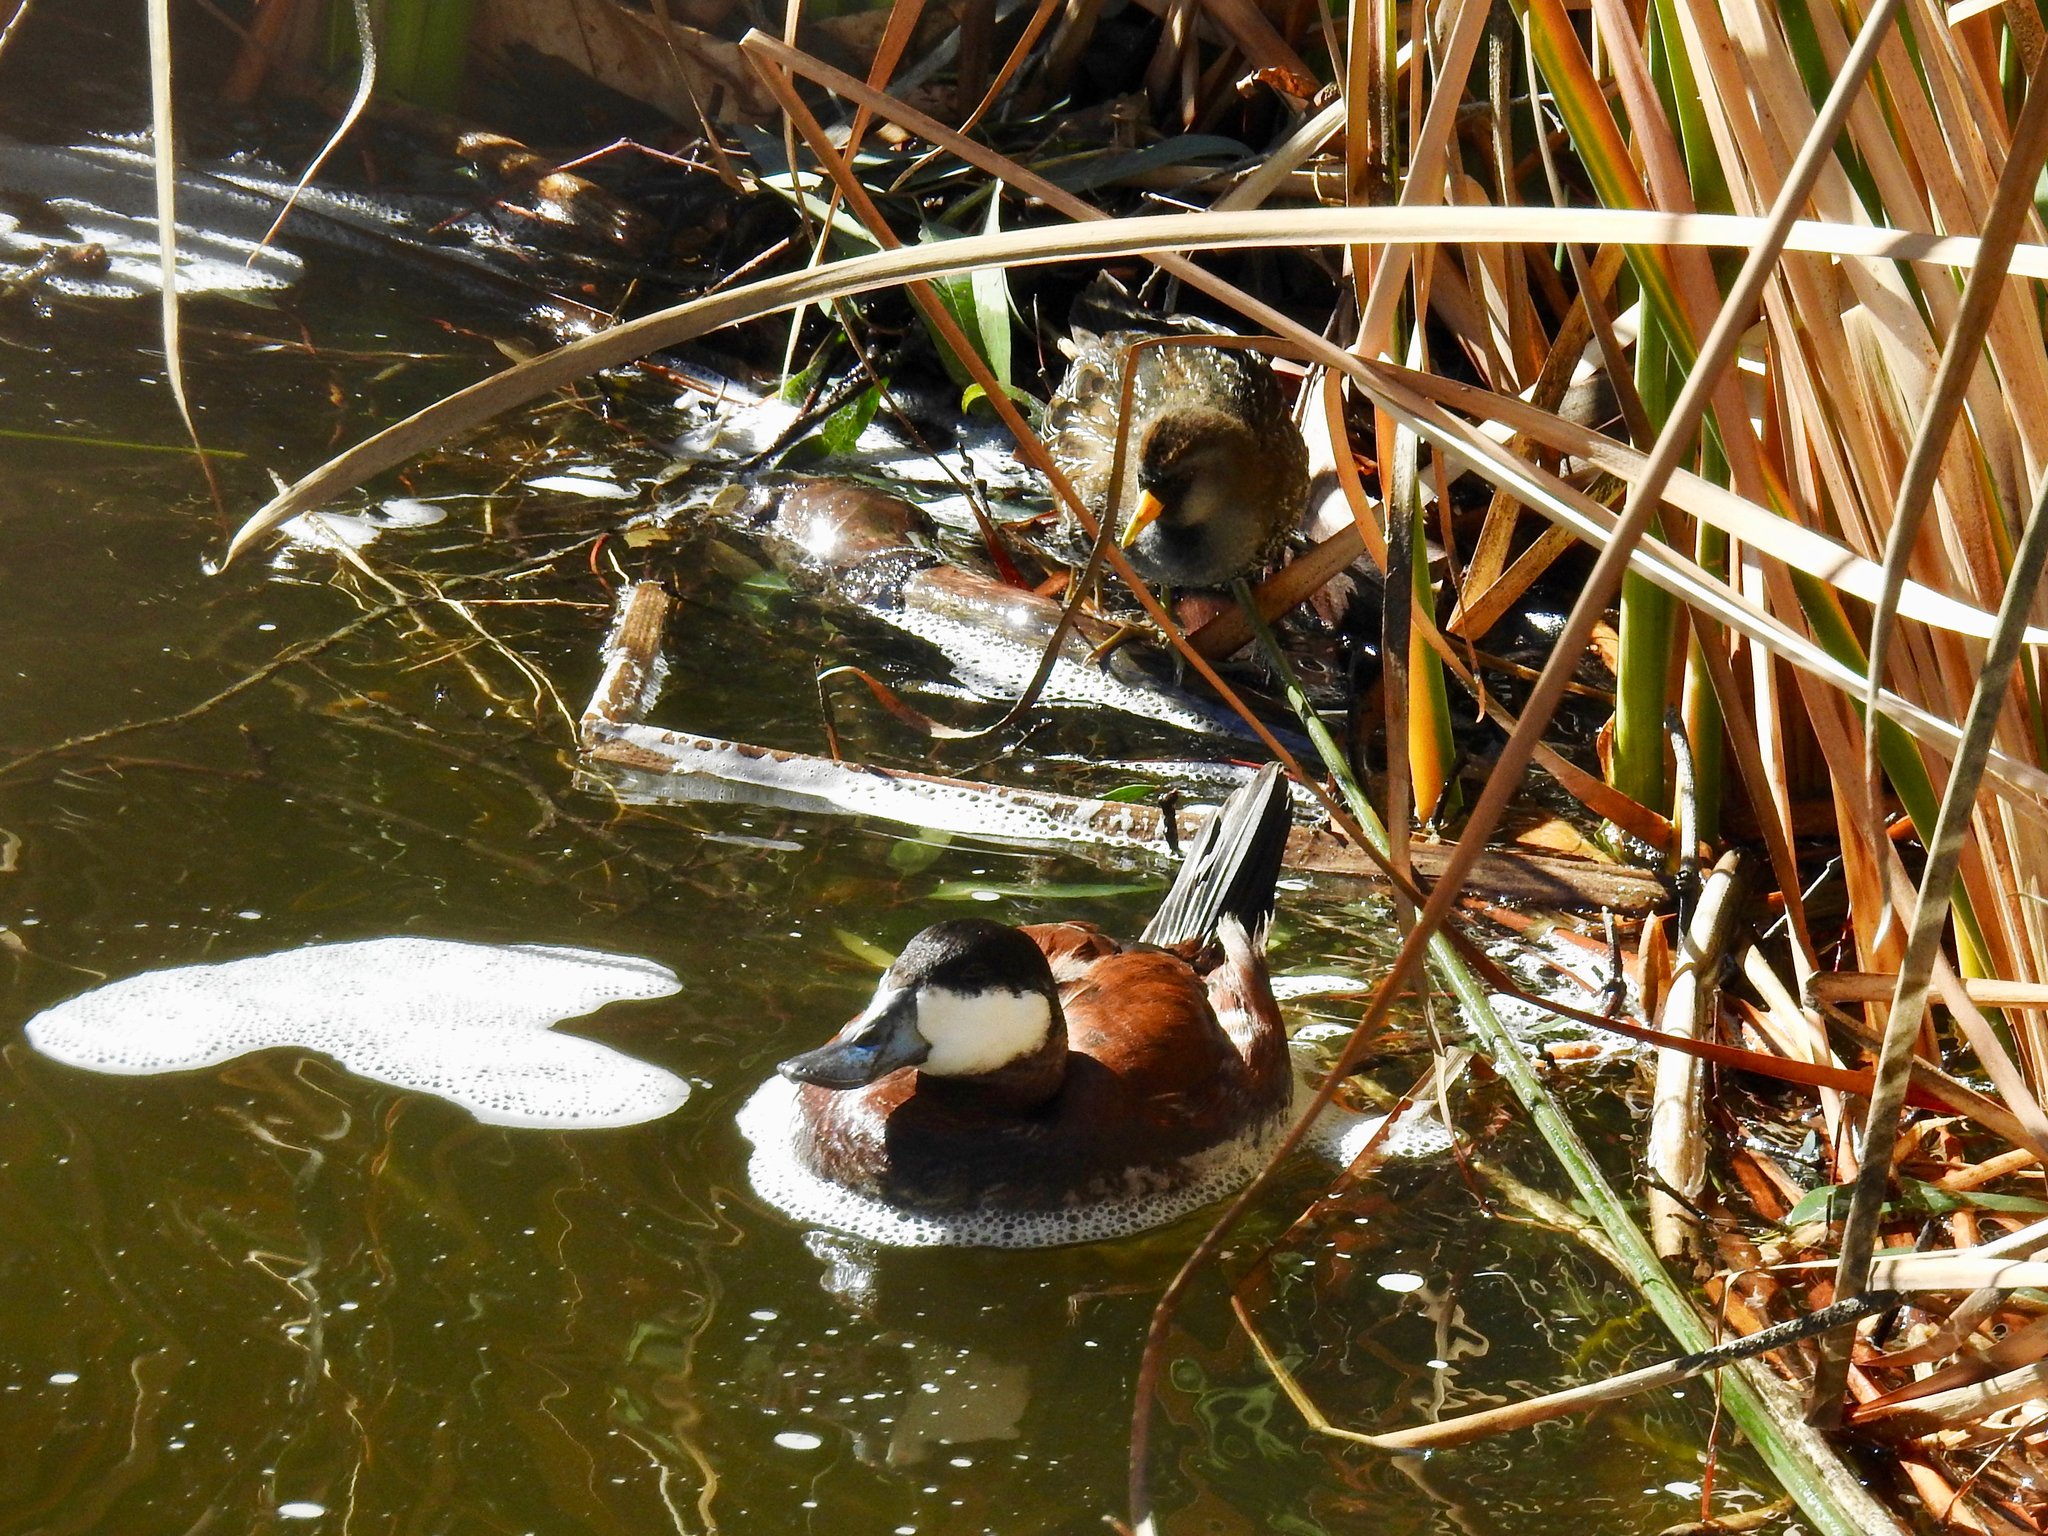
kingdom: Animalia
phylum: Chordata
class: Aves
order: Anseriformes
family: Anatidae
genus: Oxyura
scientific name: Oxyura jamaicensis
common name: Ruddy duck
